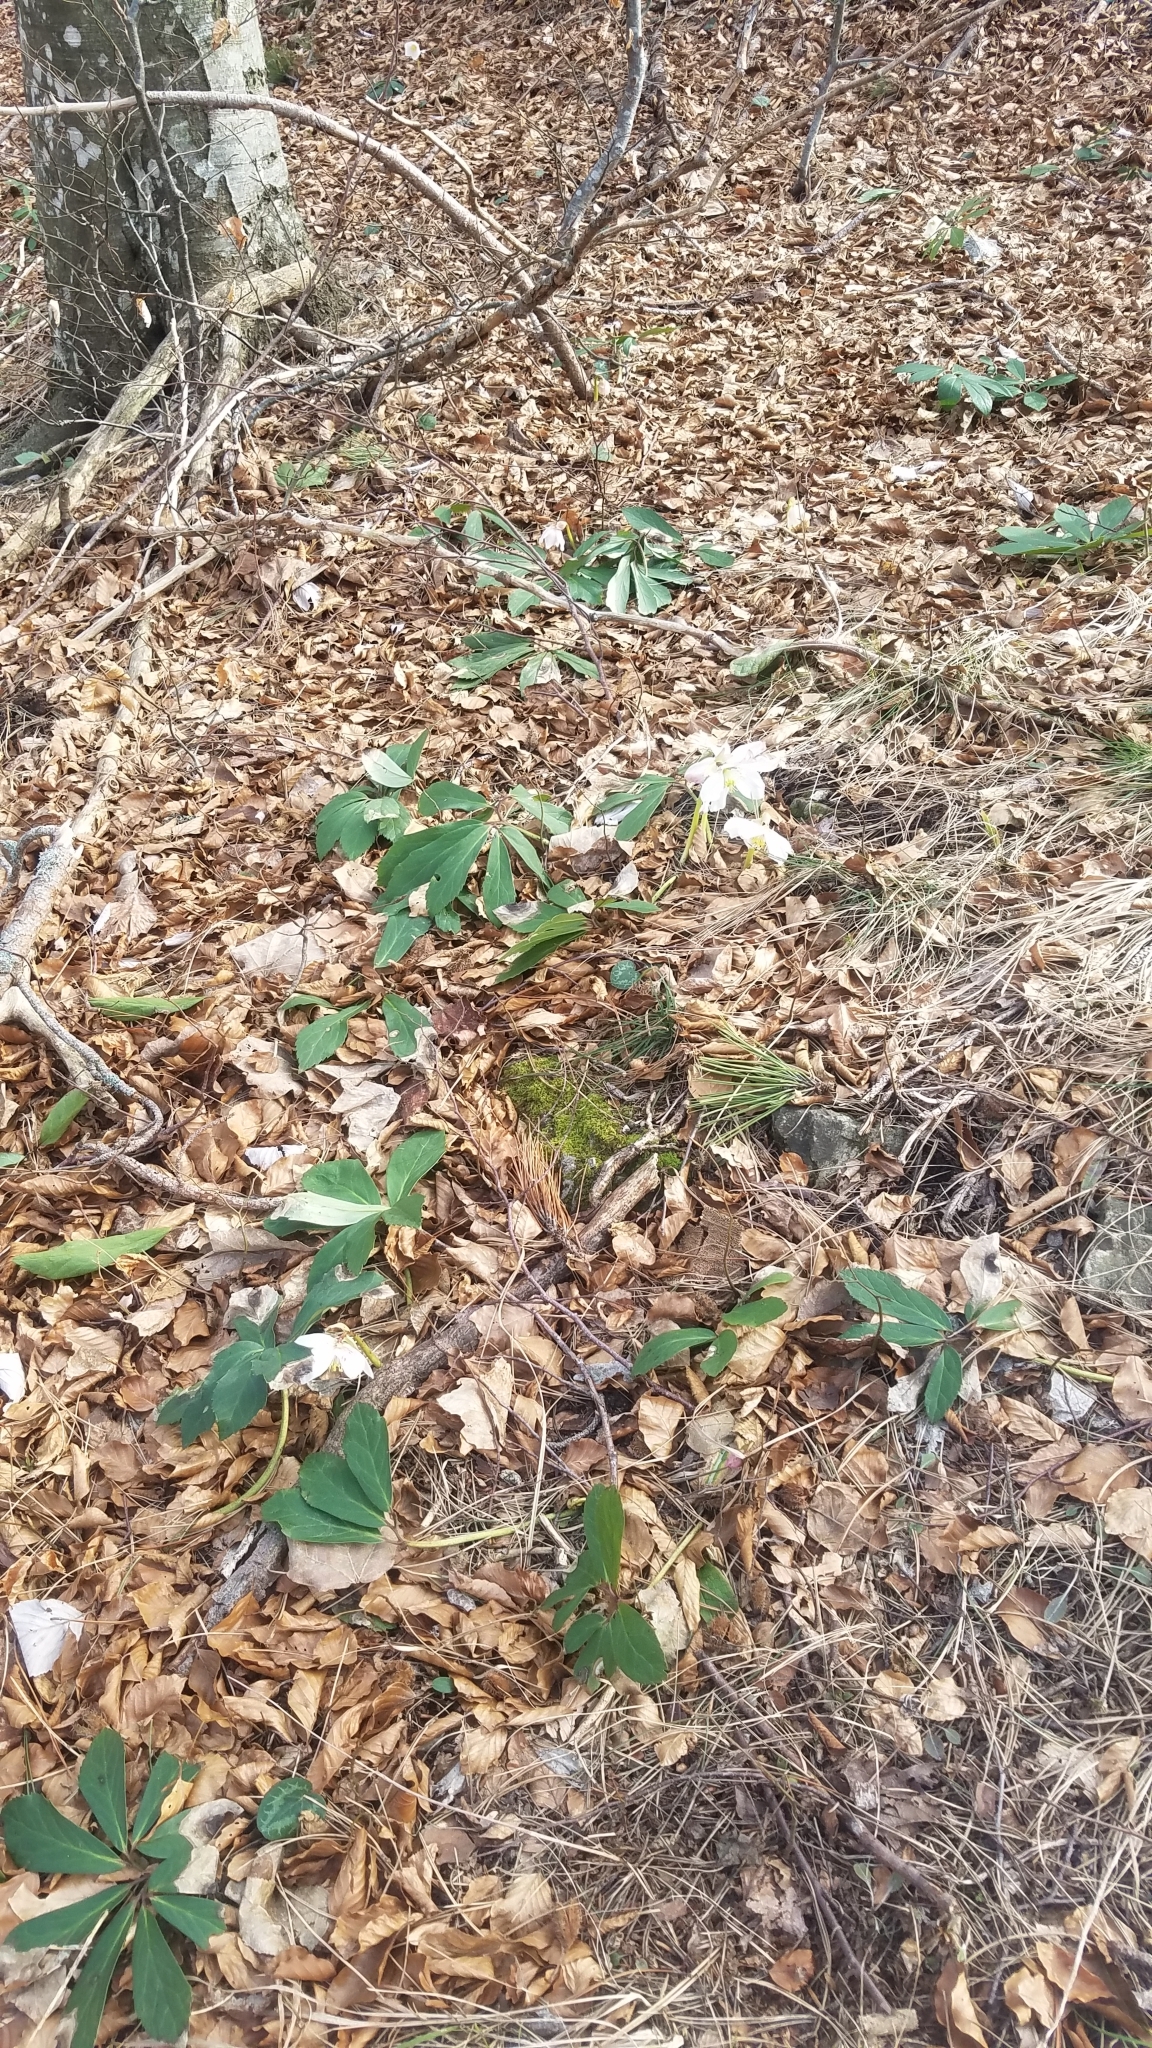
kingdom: Plantae
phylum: Tracheophyta
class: Magnoliopsida
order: Ranunculales
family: Ranunculaceae
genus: Helleborus
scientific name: Helleborus niger
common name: Black hellebore
